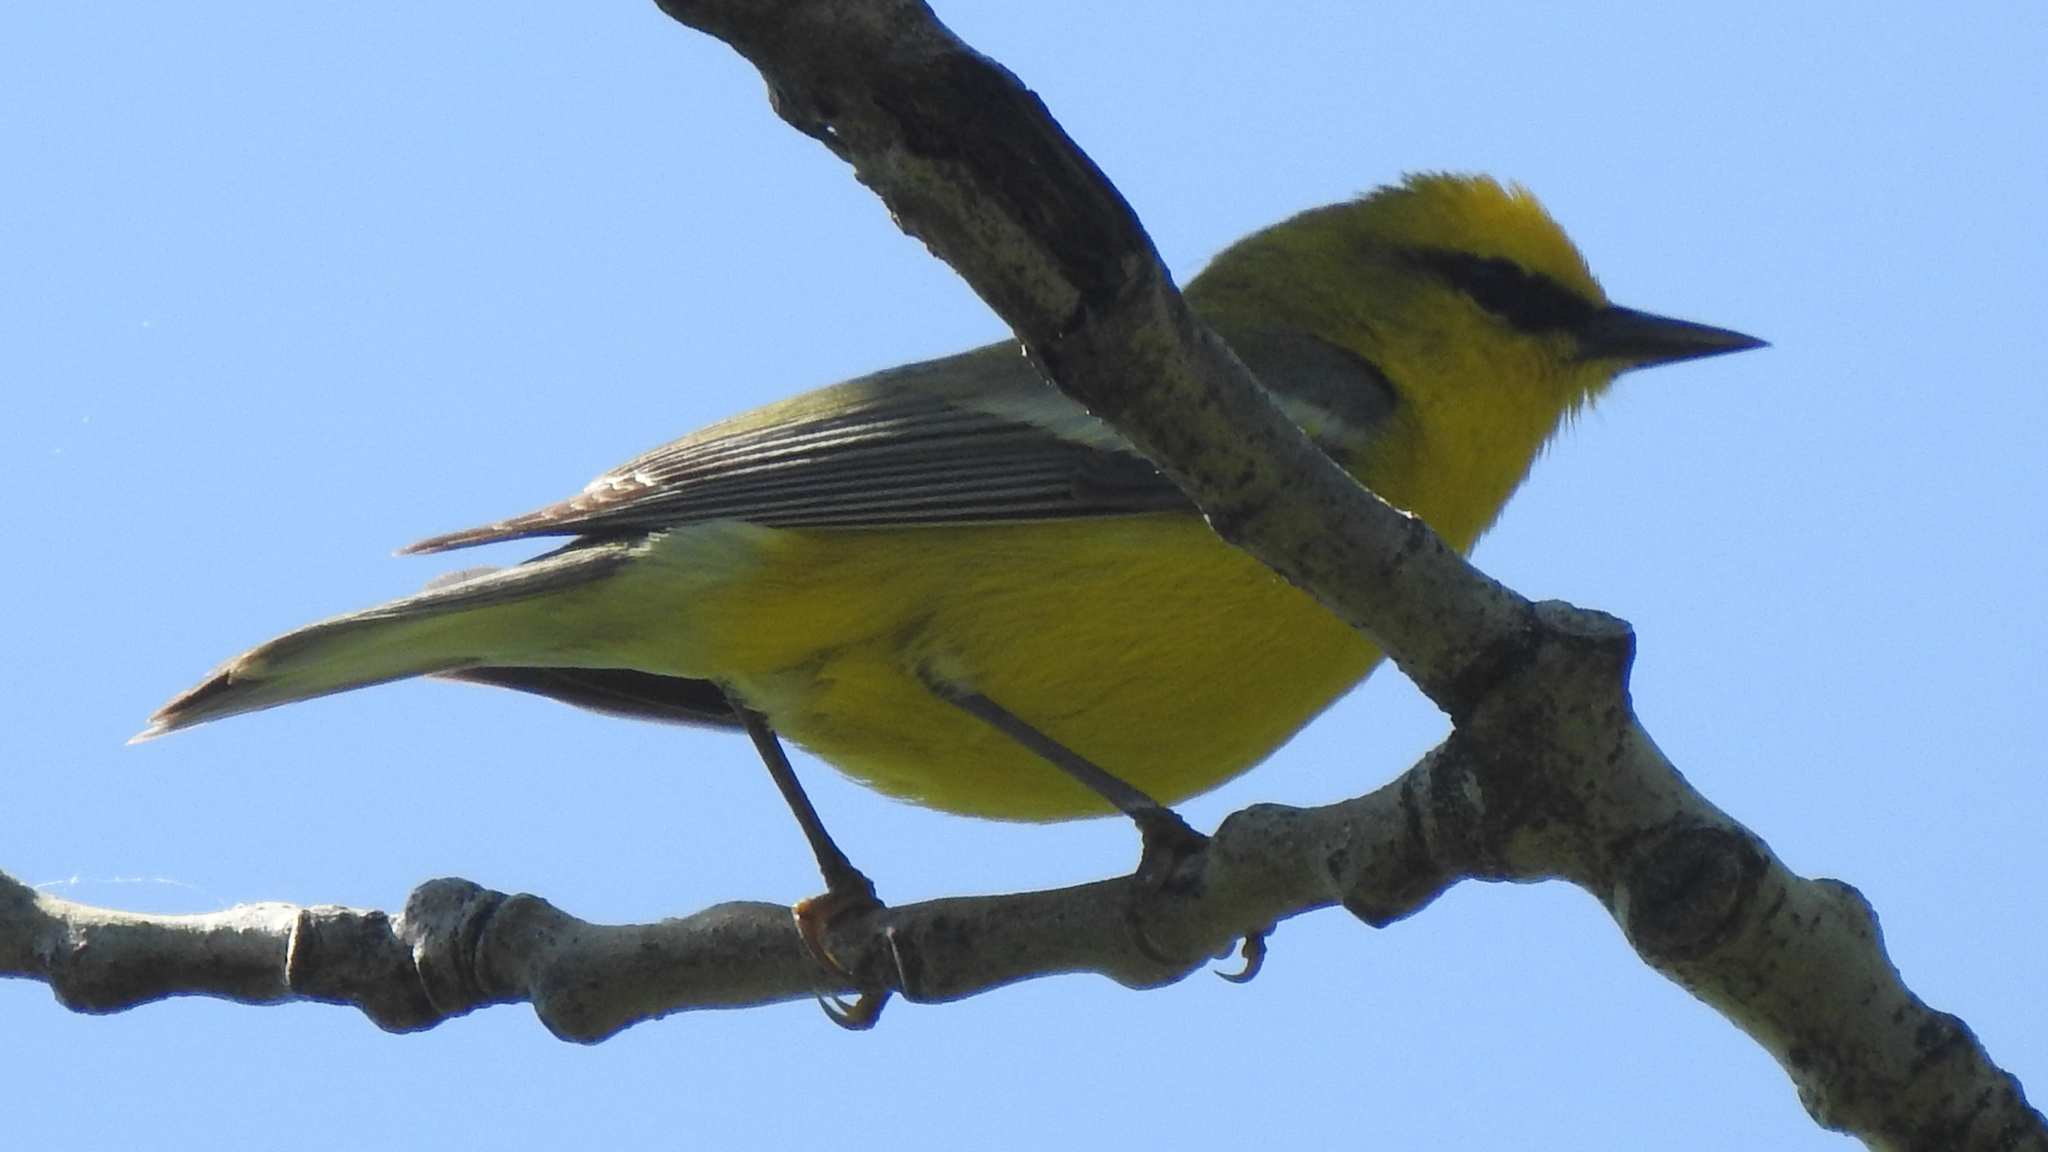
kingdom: Animalia
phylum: Chordata
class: Aves
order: Passeriformes
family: Parulidae
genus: Vermivora
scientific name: Vermivora cyanoptera
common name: Blue-winged warbler
